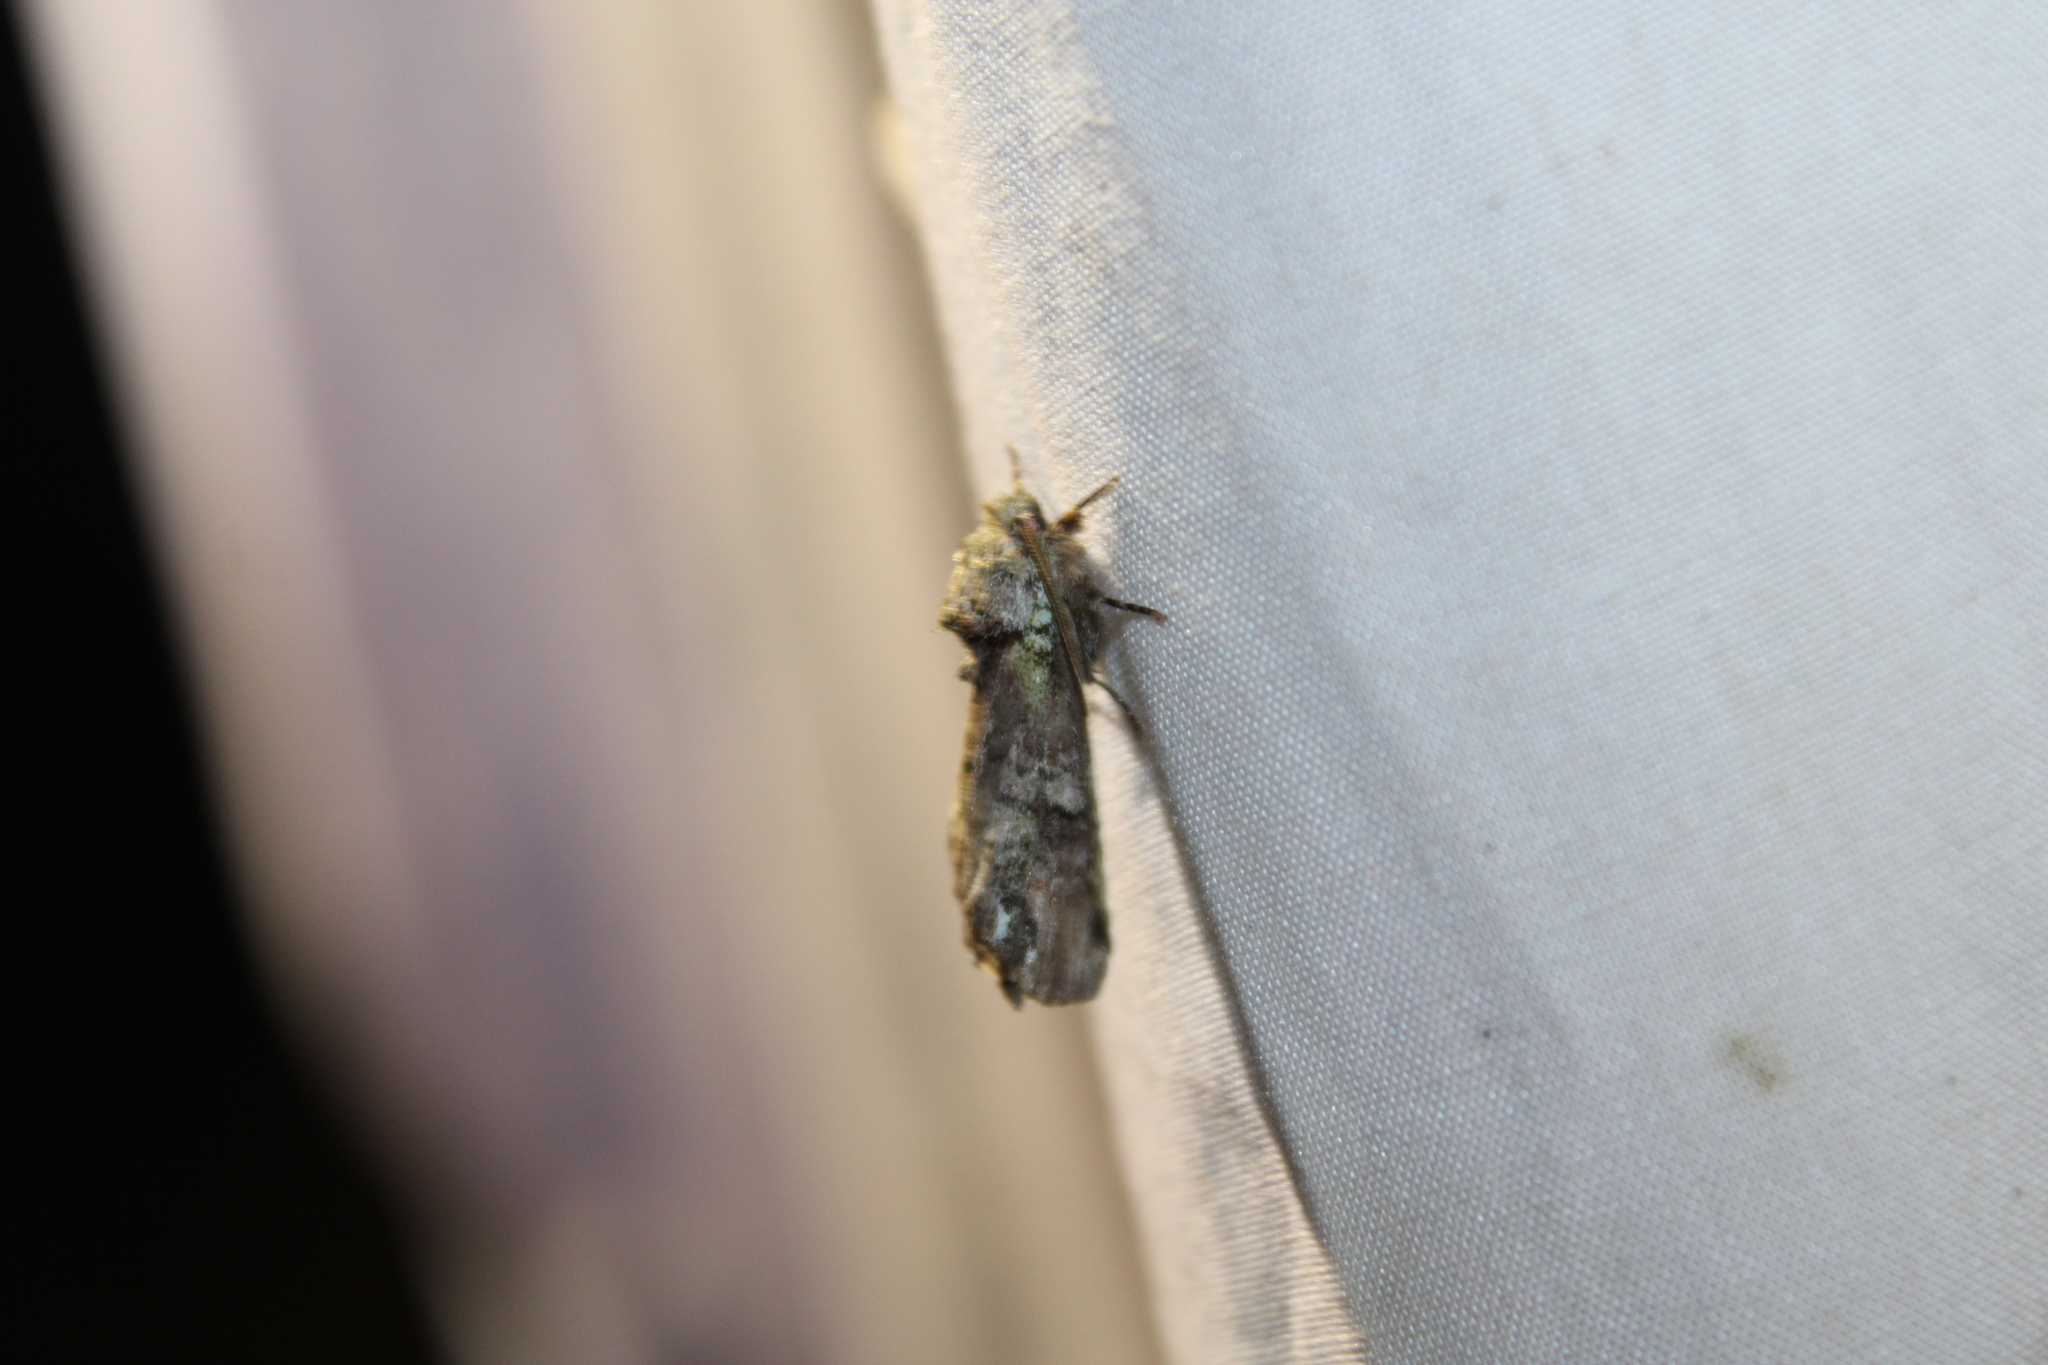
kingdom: Animalia
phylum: Arthropoda
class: Insecta
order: Lepidoptera
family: Notodontidae
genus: Schizura
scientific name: Schizura
